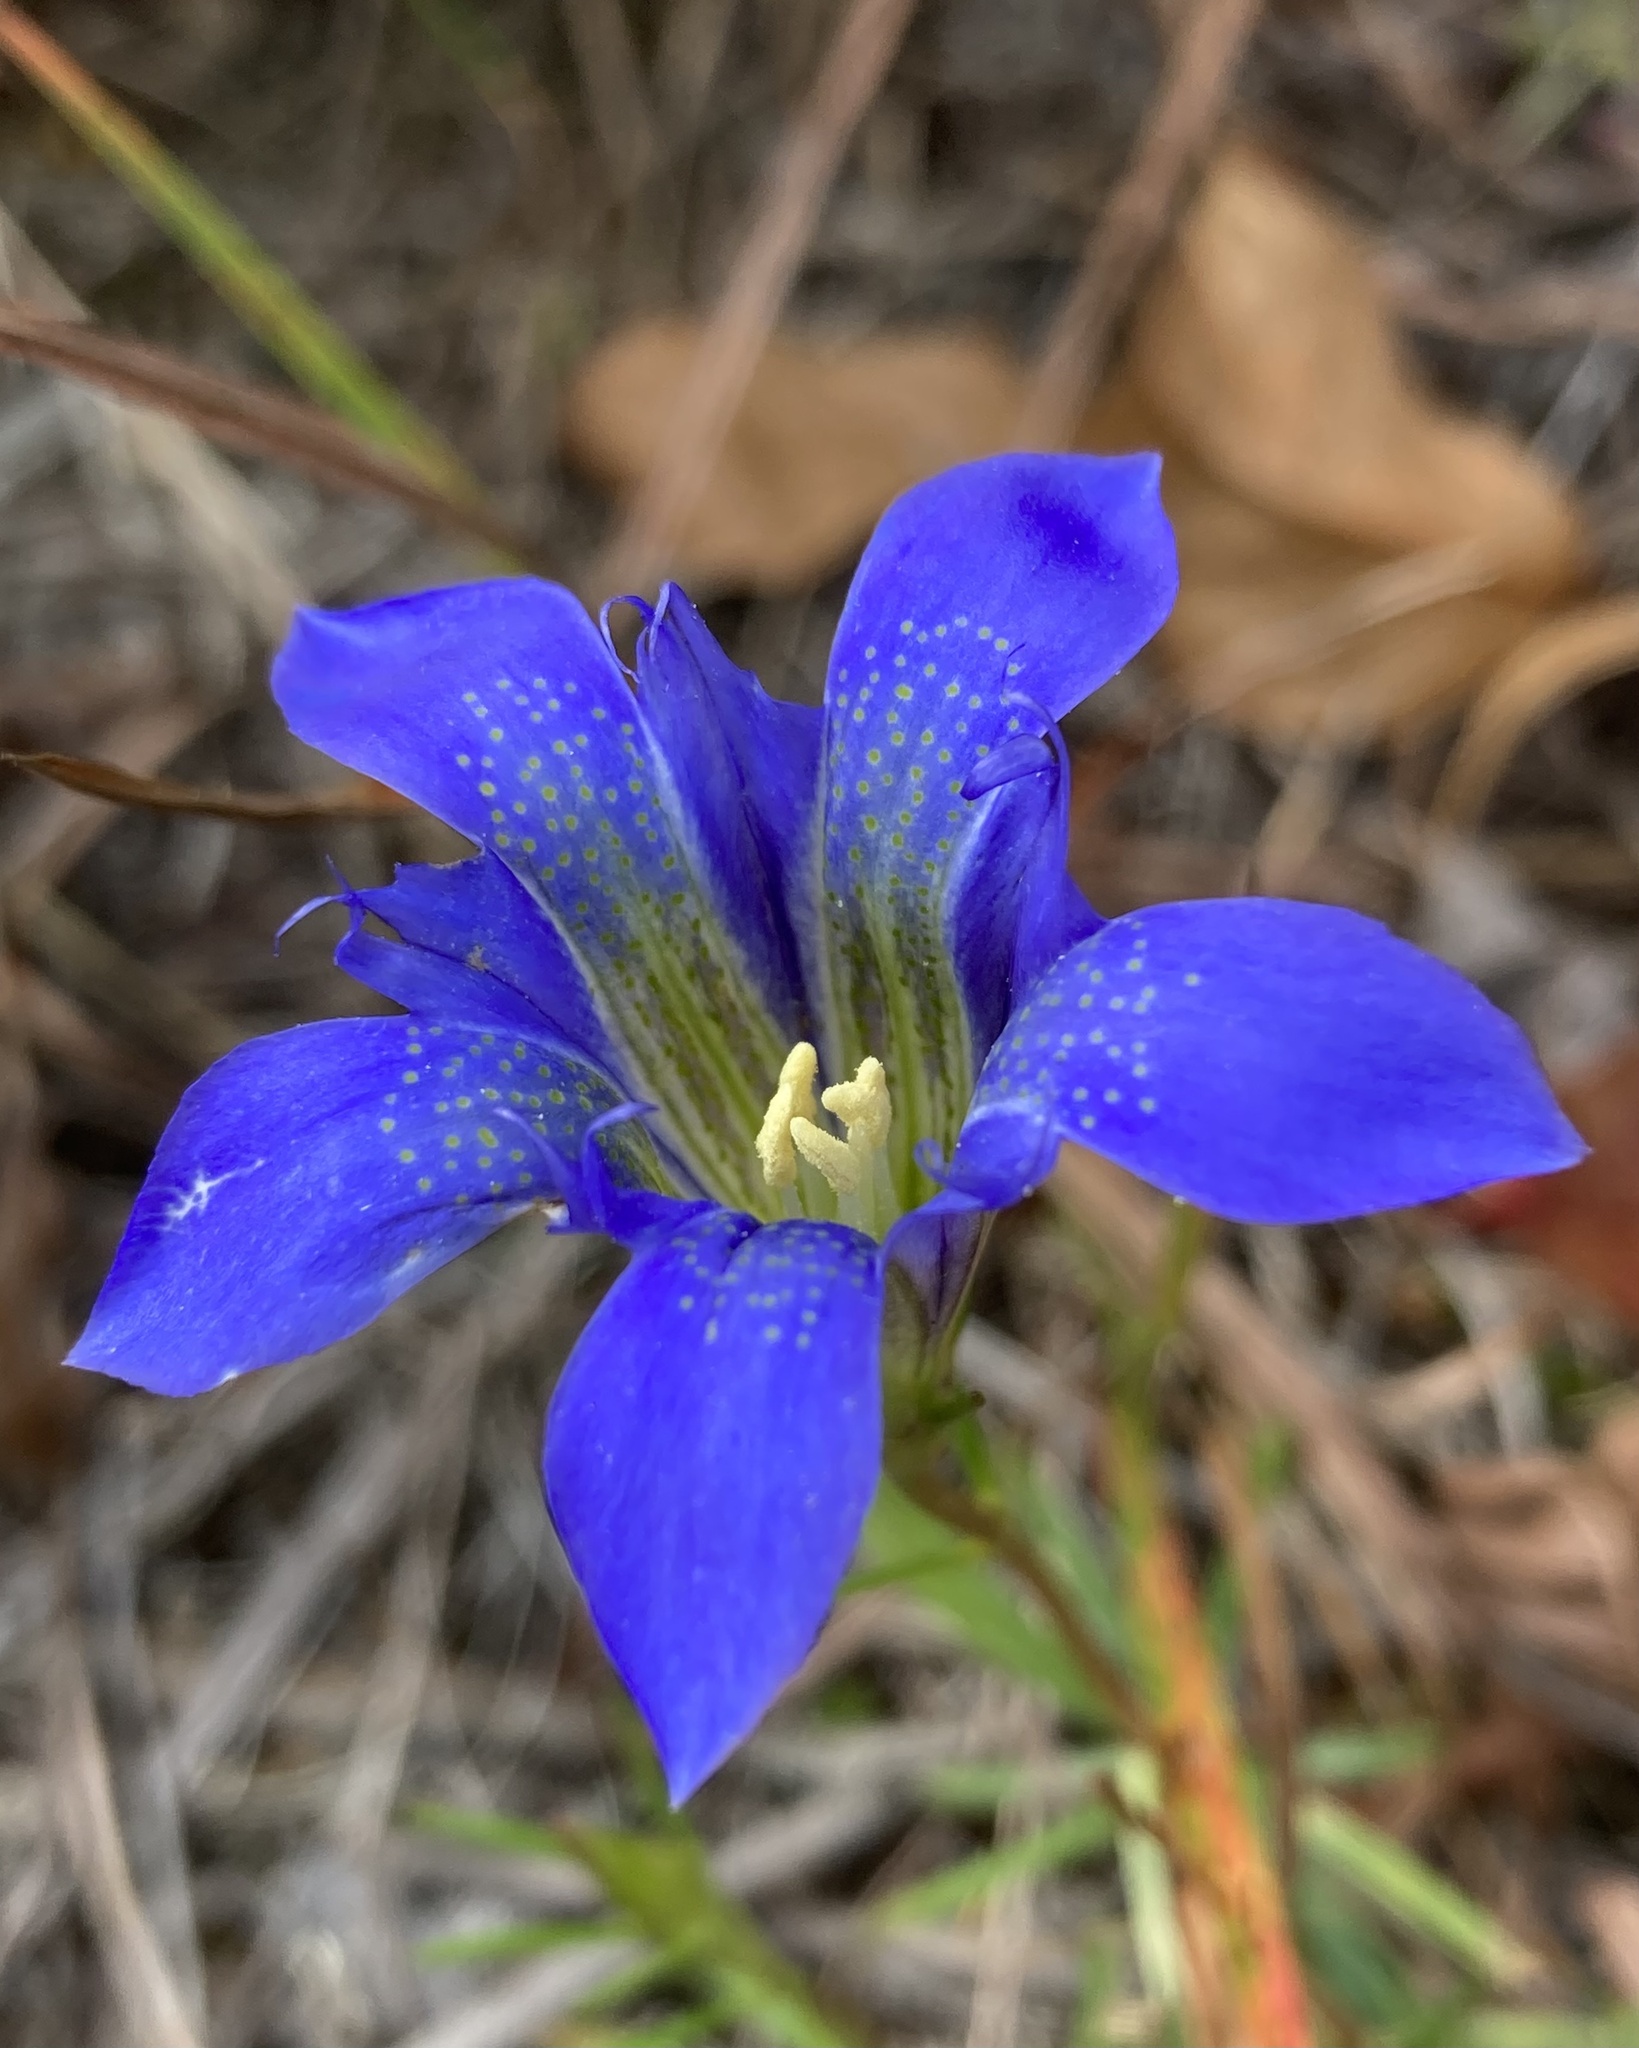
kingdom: Plantae
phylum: Tracheophyta
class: Magnoliopsida
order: Gentianales
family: Gentianaceae
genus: Gentiana
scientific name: Gentiana autumnalis
